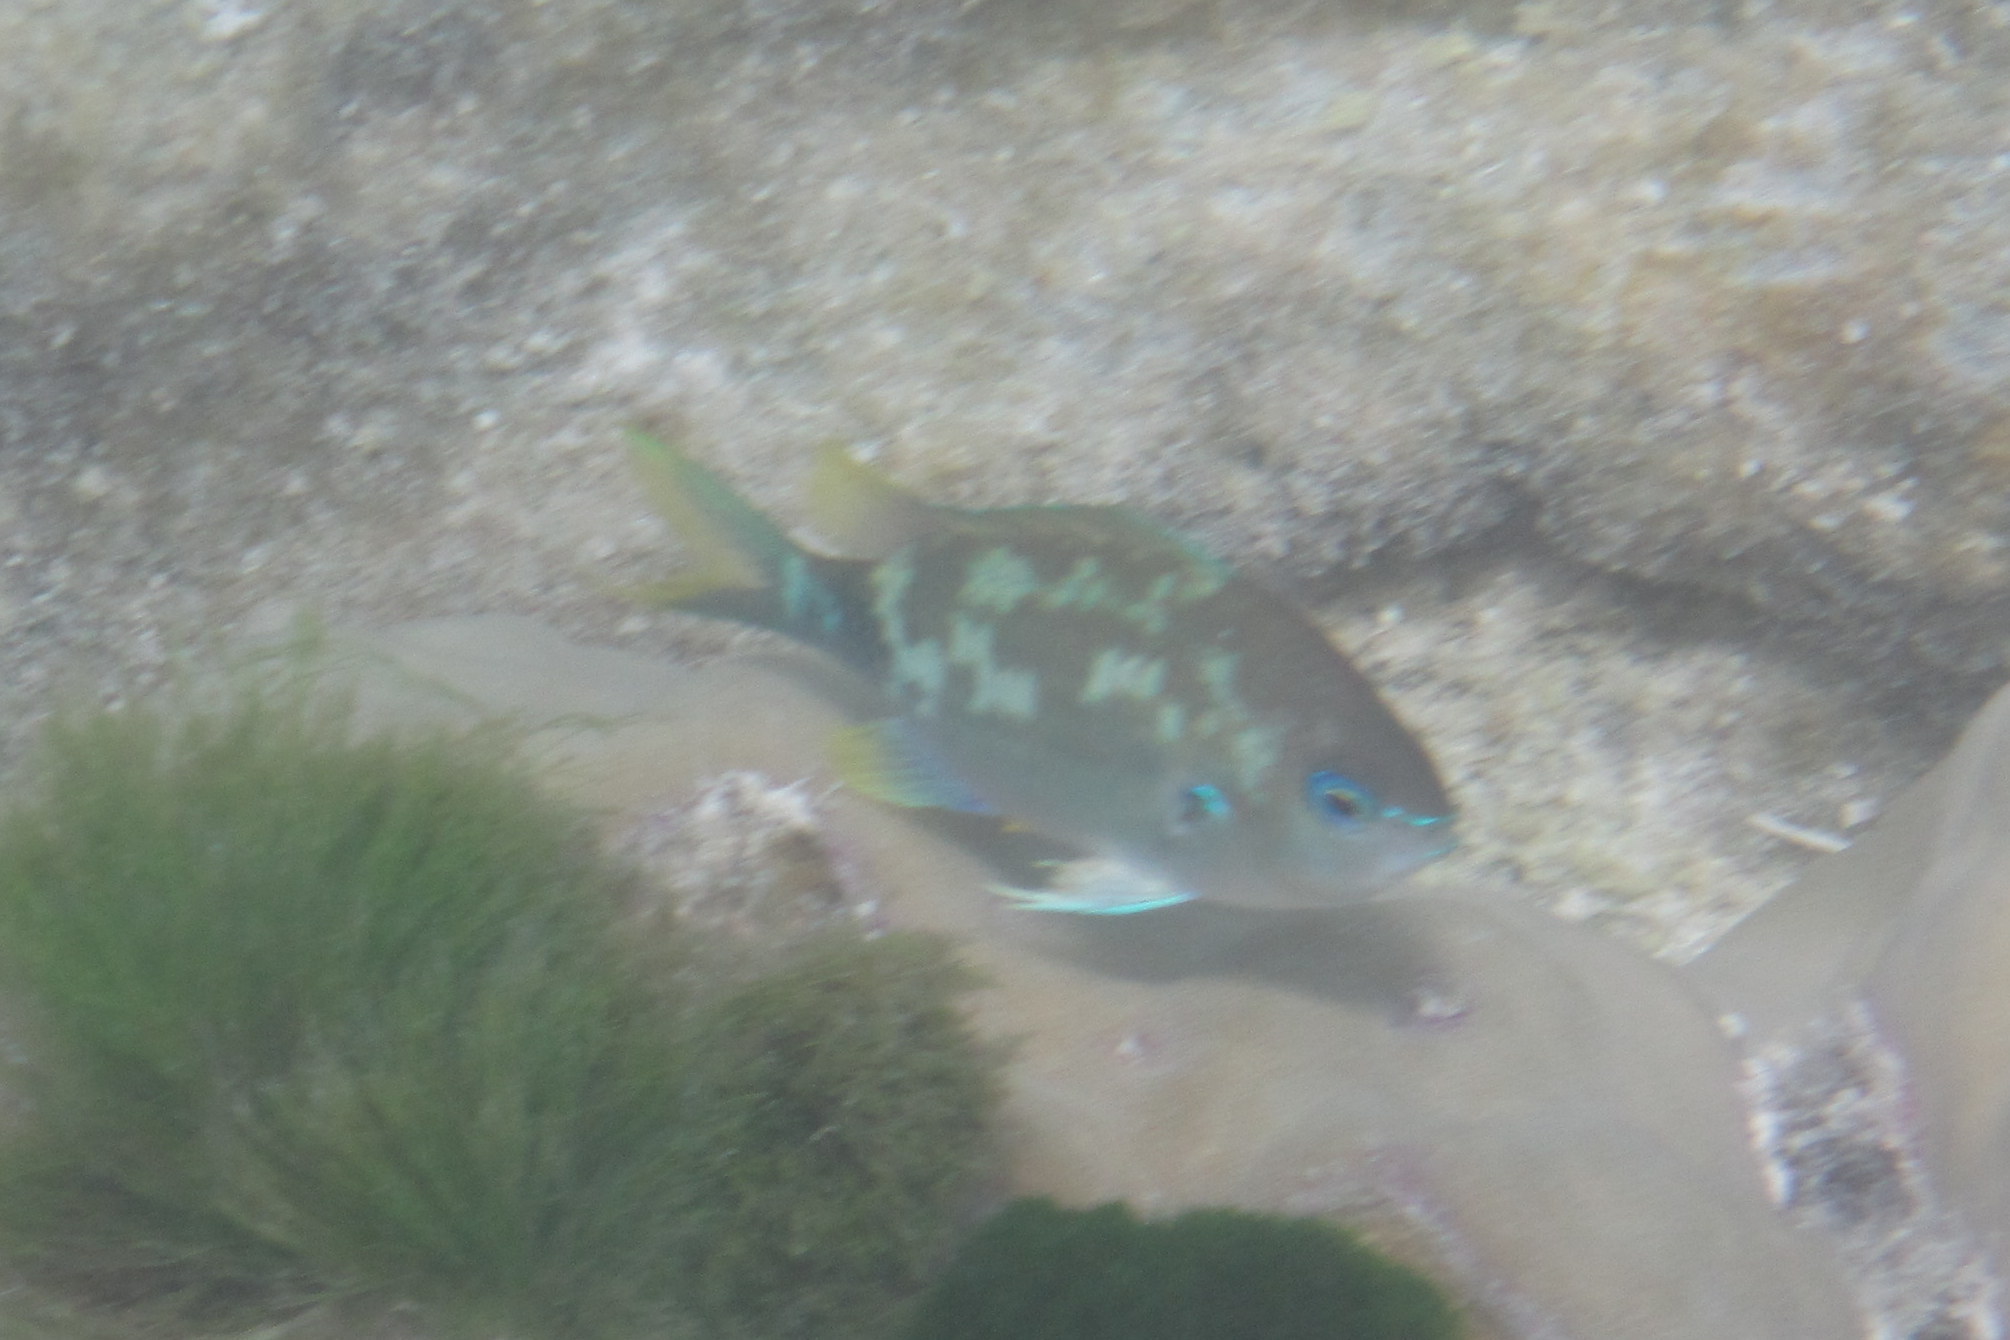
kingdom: Animalia
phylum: Chordata
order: Perciformes
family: Pomacentridae
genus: Chromis
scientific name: Chromis atripectoralis
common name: Black-axil chromis
